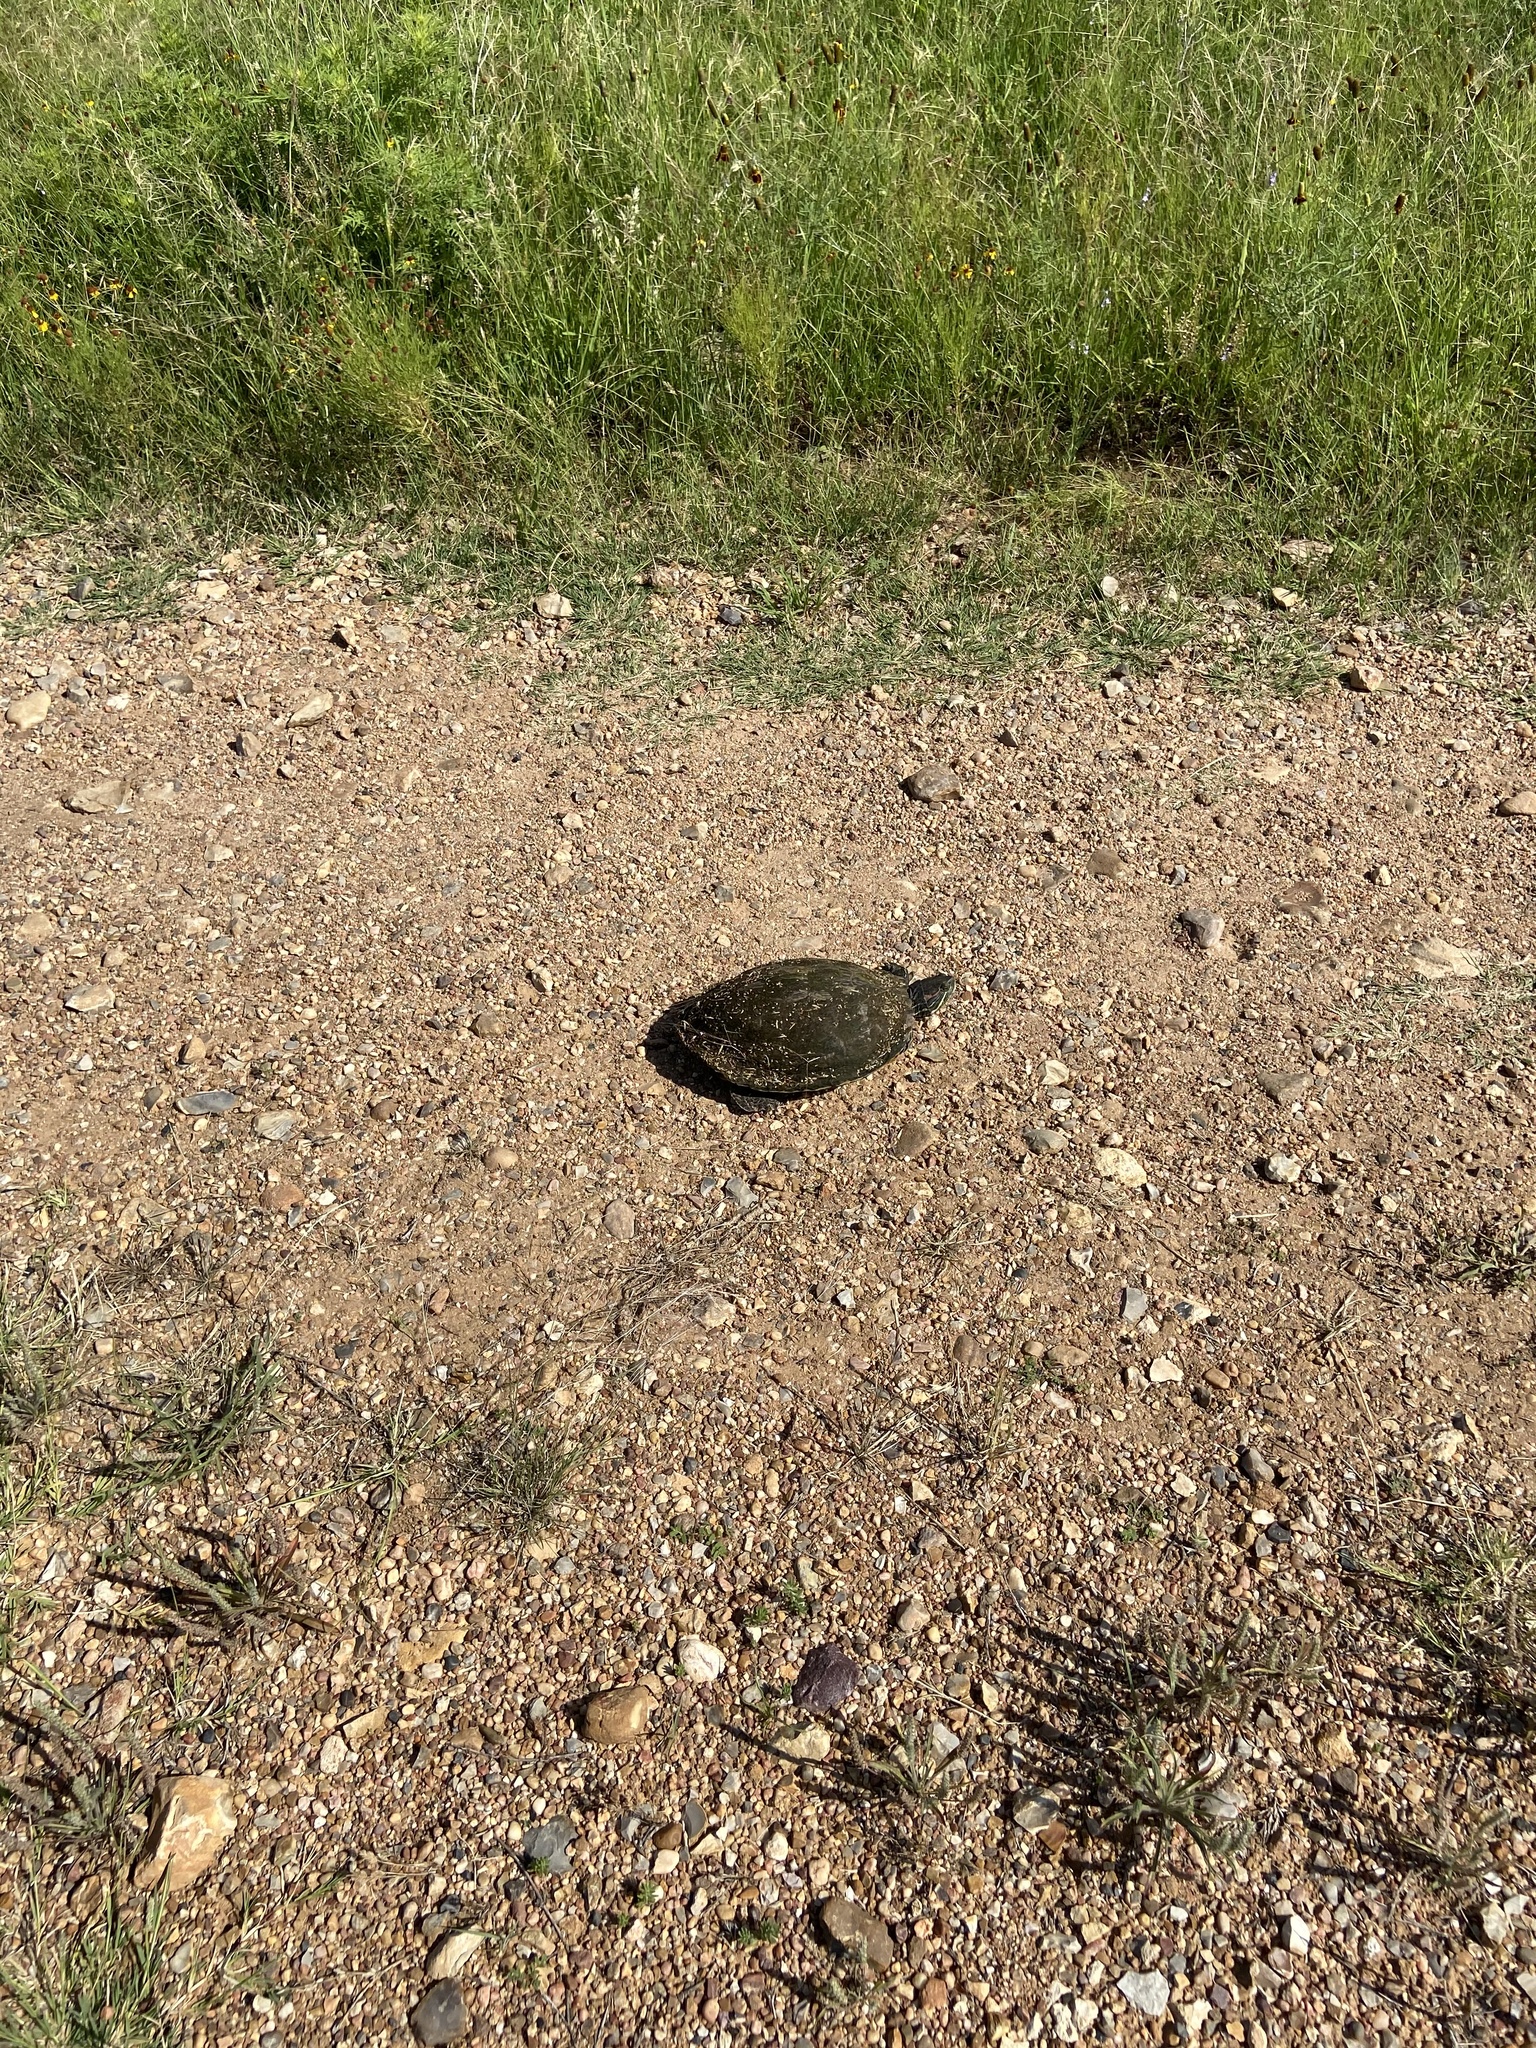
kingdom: Animalia
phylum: Chordata
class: Testudines
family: Emydidae
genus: Trachemys
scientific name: Trachemys scripta
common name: Slider
